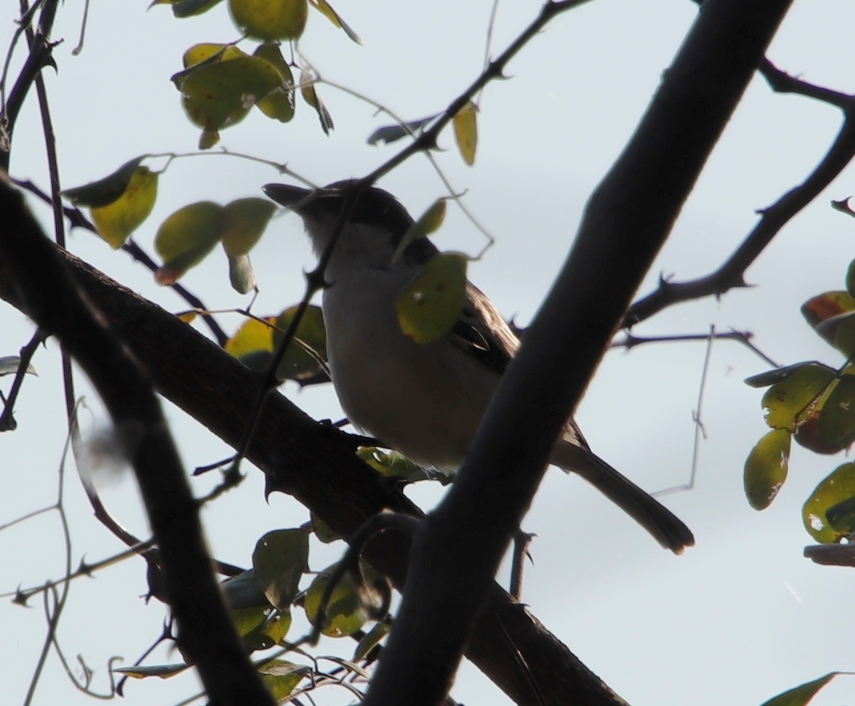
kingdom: Animalia
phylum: Chordata
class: Aves
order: Passeriformes
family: Malaconotidae
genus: Dryoscopus
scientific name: Dryoscopus cubla
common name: Black-backed puffback
